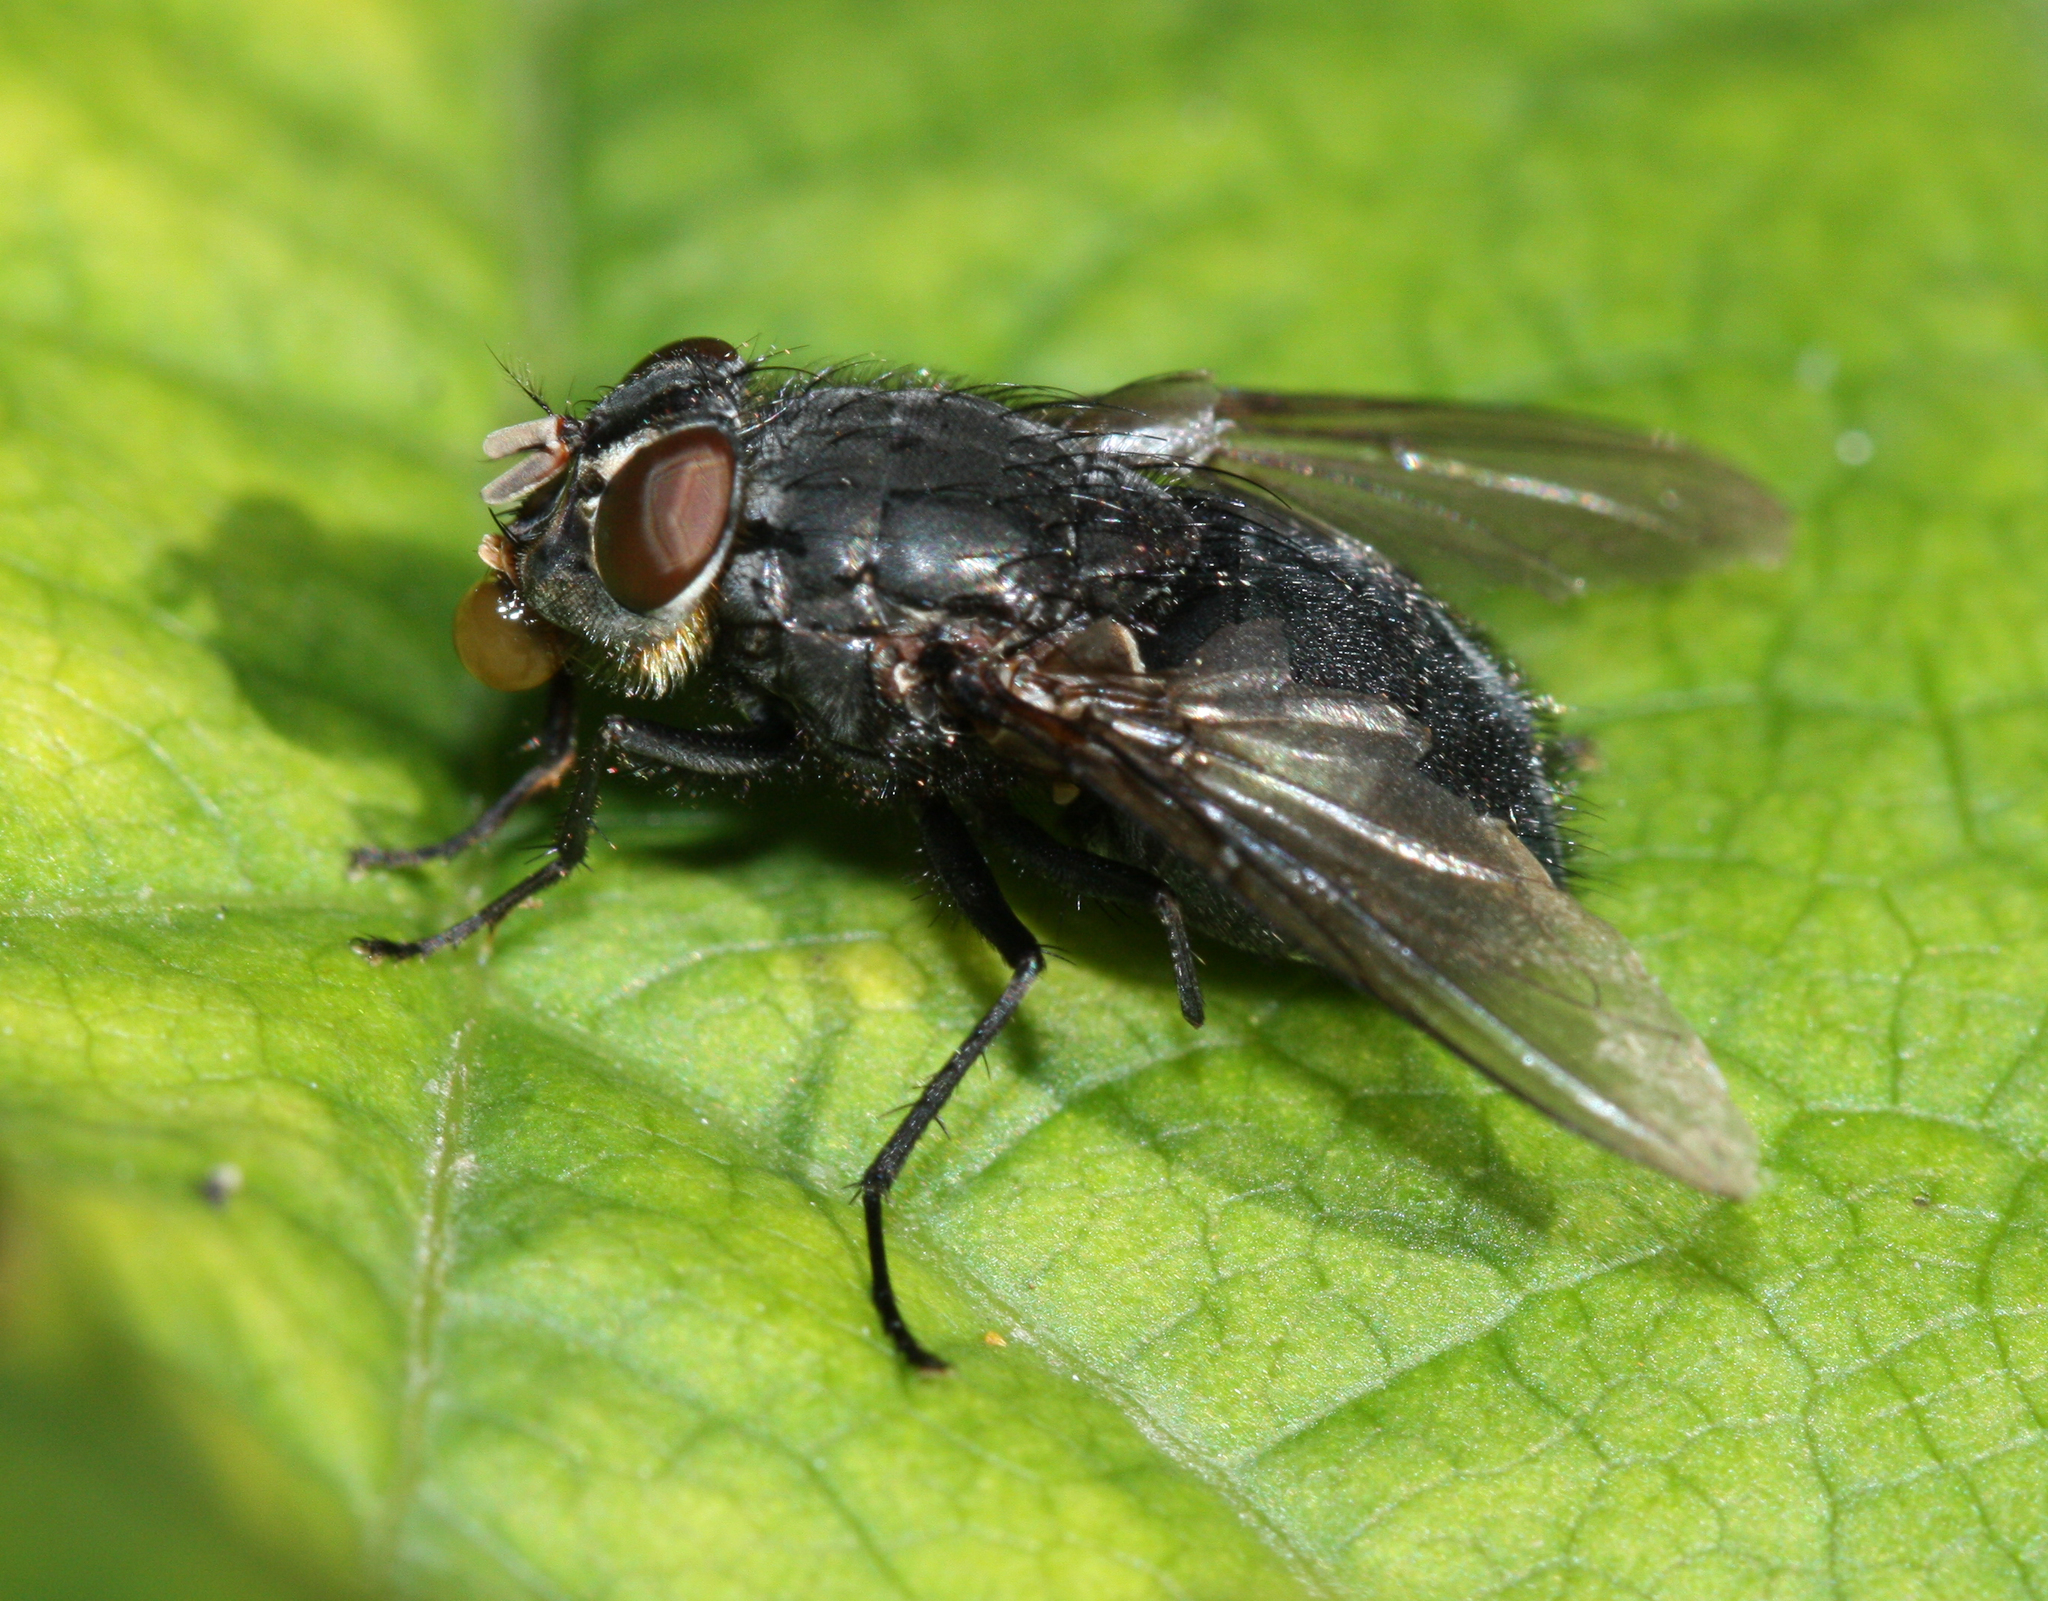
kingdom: Animalia
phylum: Arthropoda
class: Insecta
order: Diptera
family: Calliphoridae
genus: Calliphora
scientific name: Calliphora vomitoria
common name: Blue bottle fly
